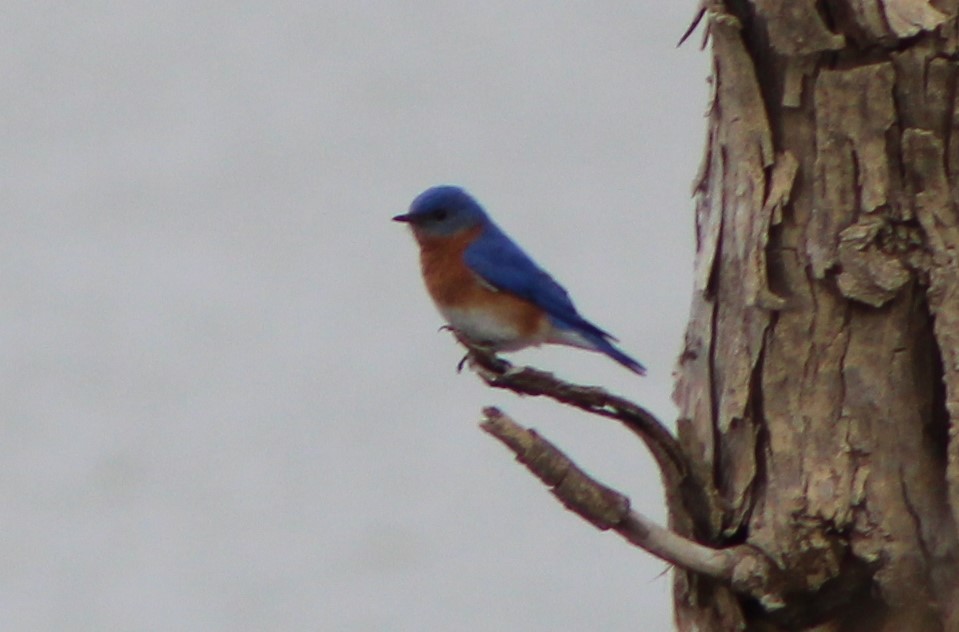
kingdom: Animalia
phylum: Chordata
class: Aves
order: Passeriformes
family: Turdidae
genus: Sialia
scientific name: Sialia sialis
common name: Eastern bluebird
